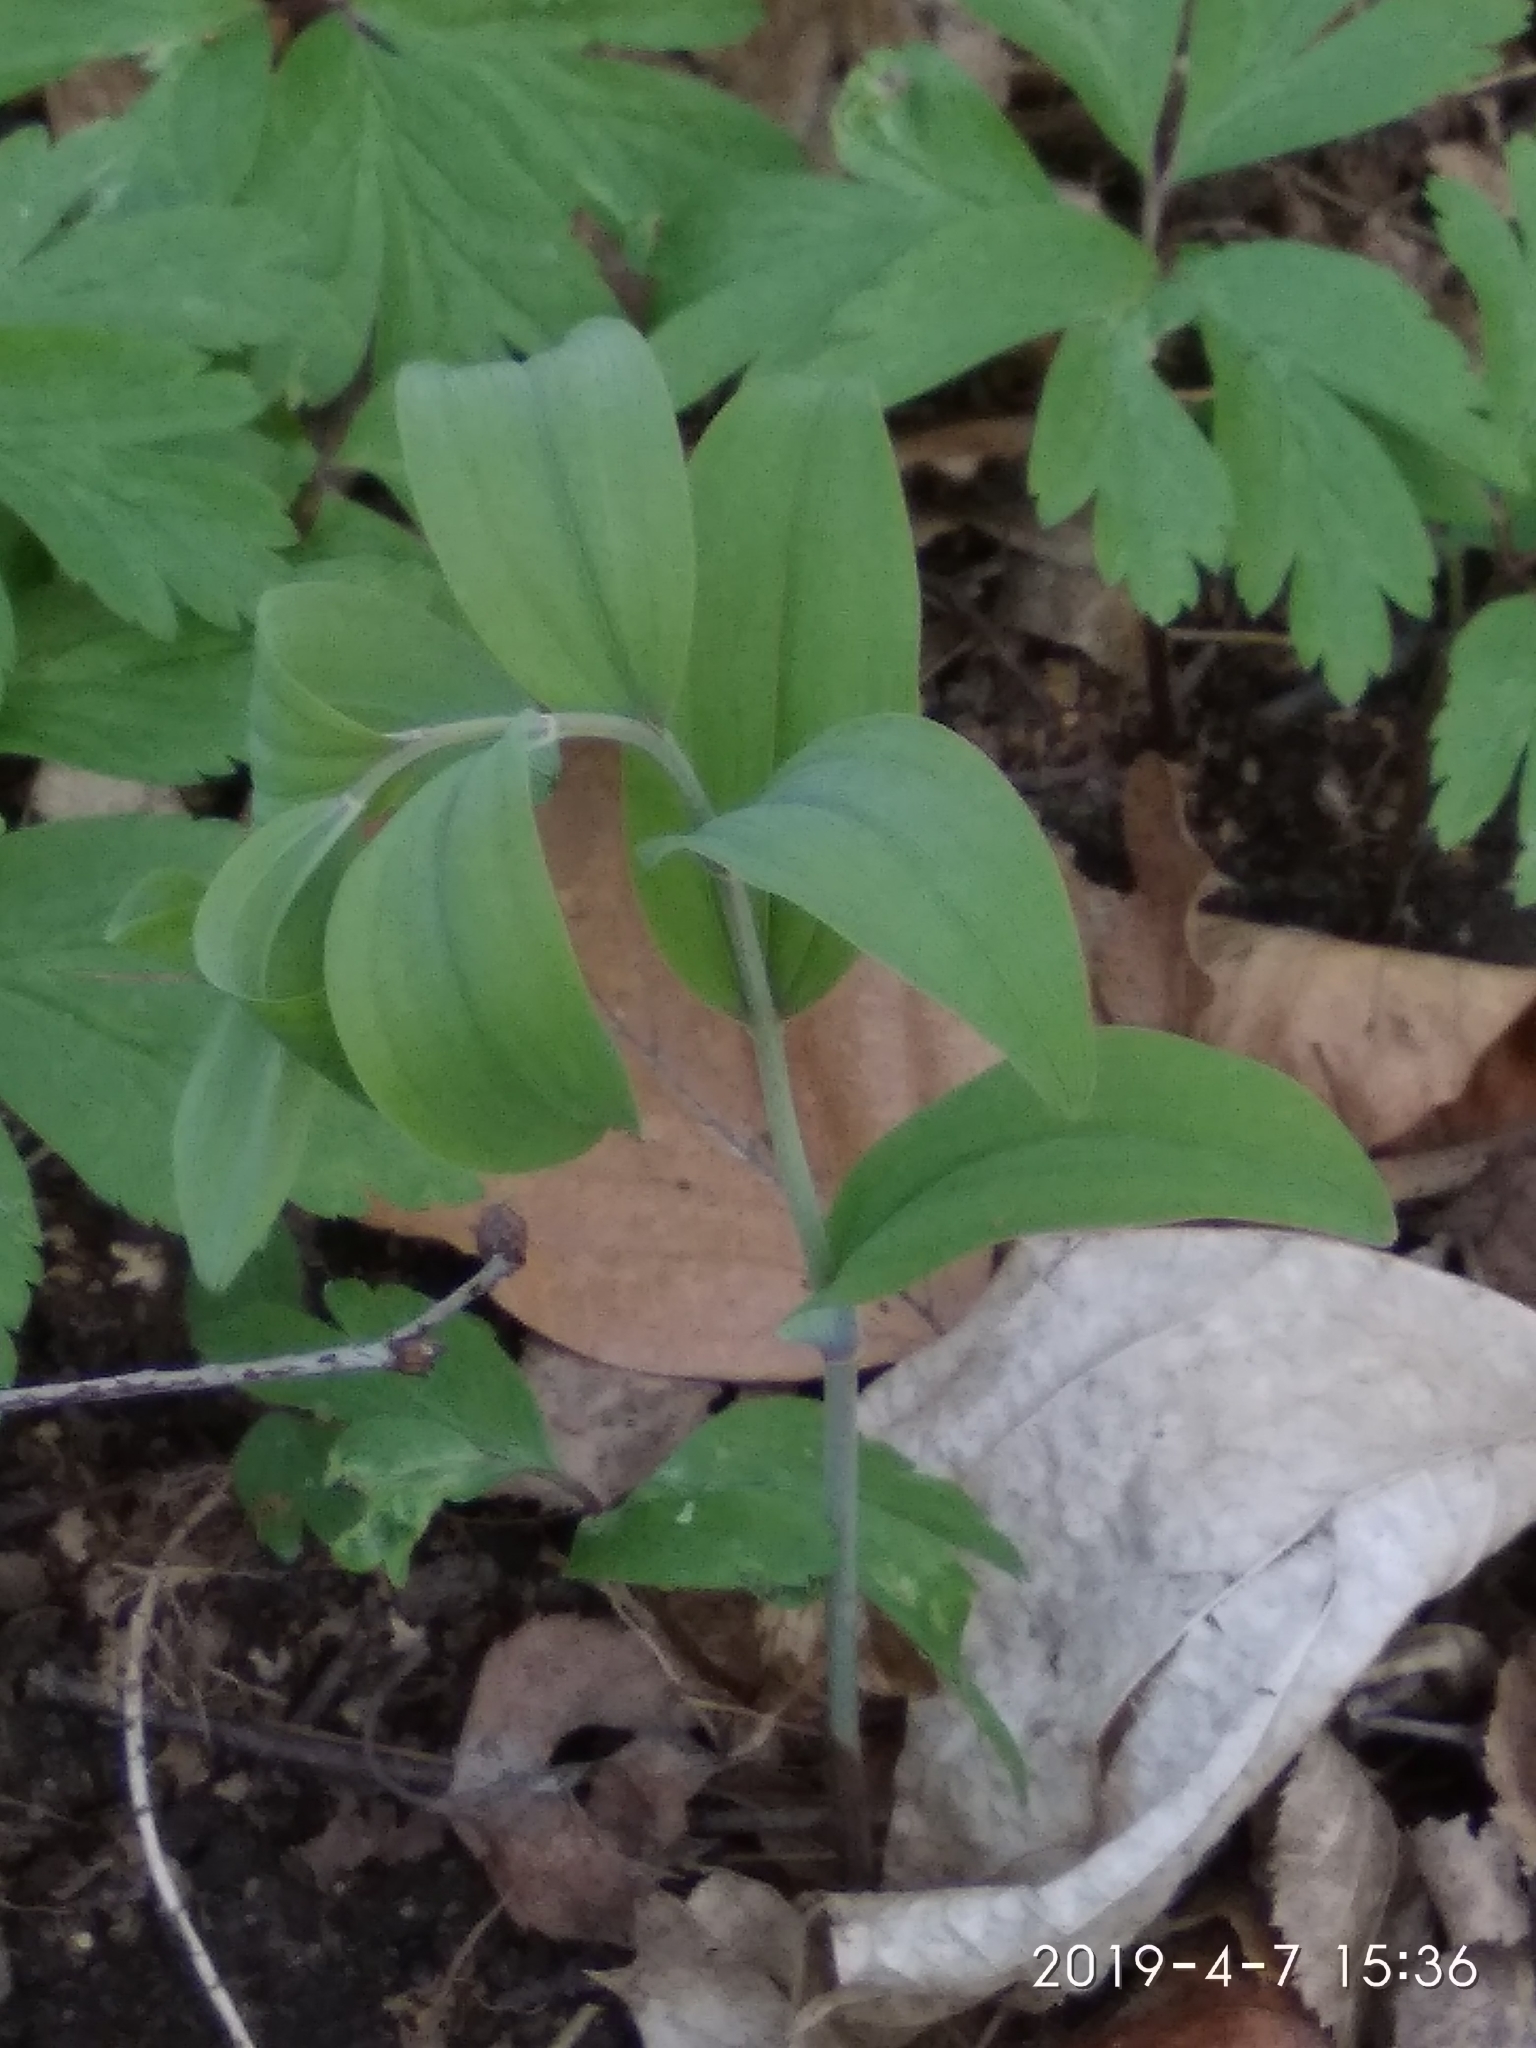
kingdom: Plantae
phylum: Tracheophyta
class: Liliopsida
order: Asparagales
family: Asparagaceae
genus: Polygonatum
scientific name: Polygonatum multiflorum
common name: Solomon's-seal
